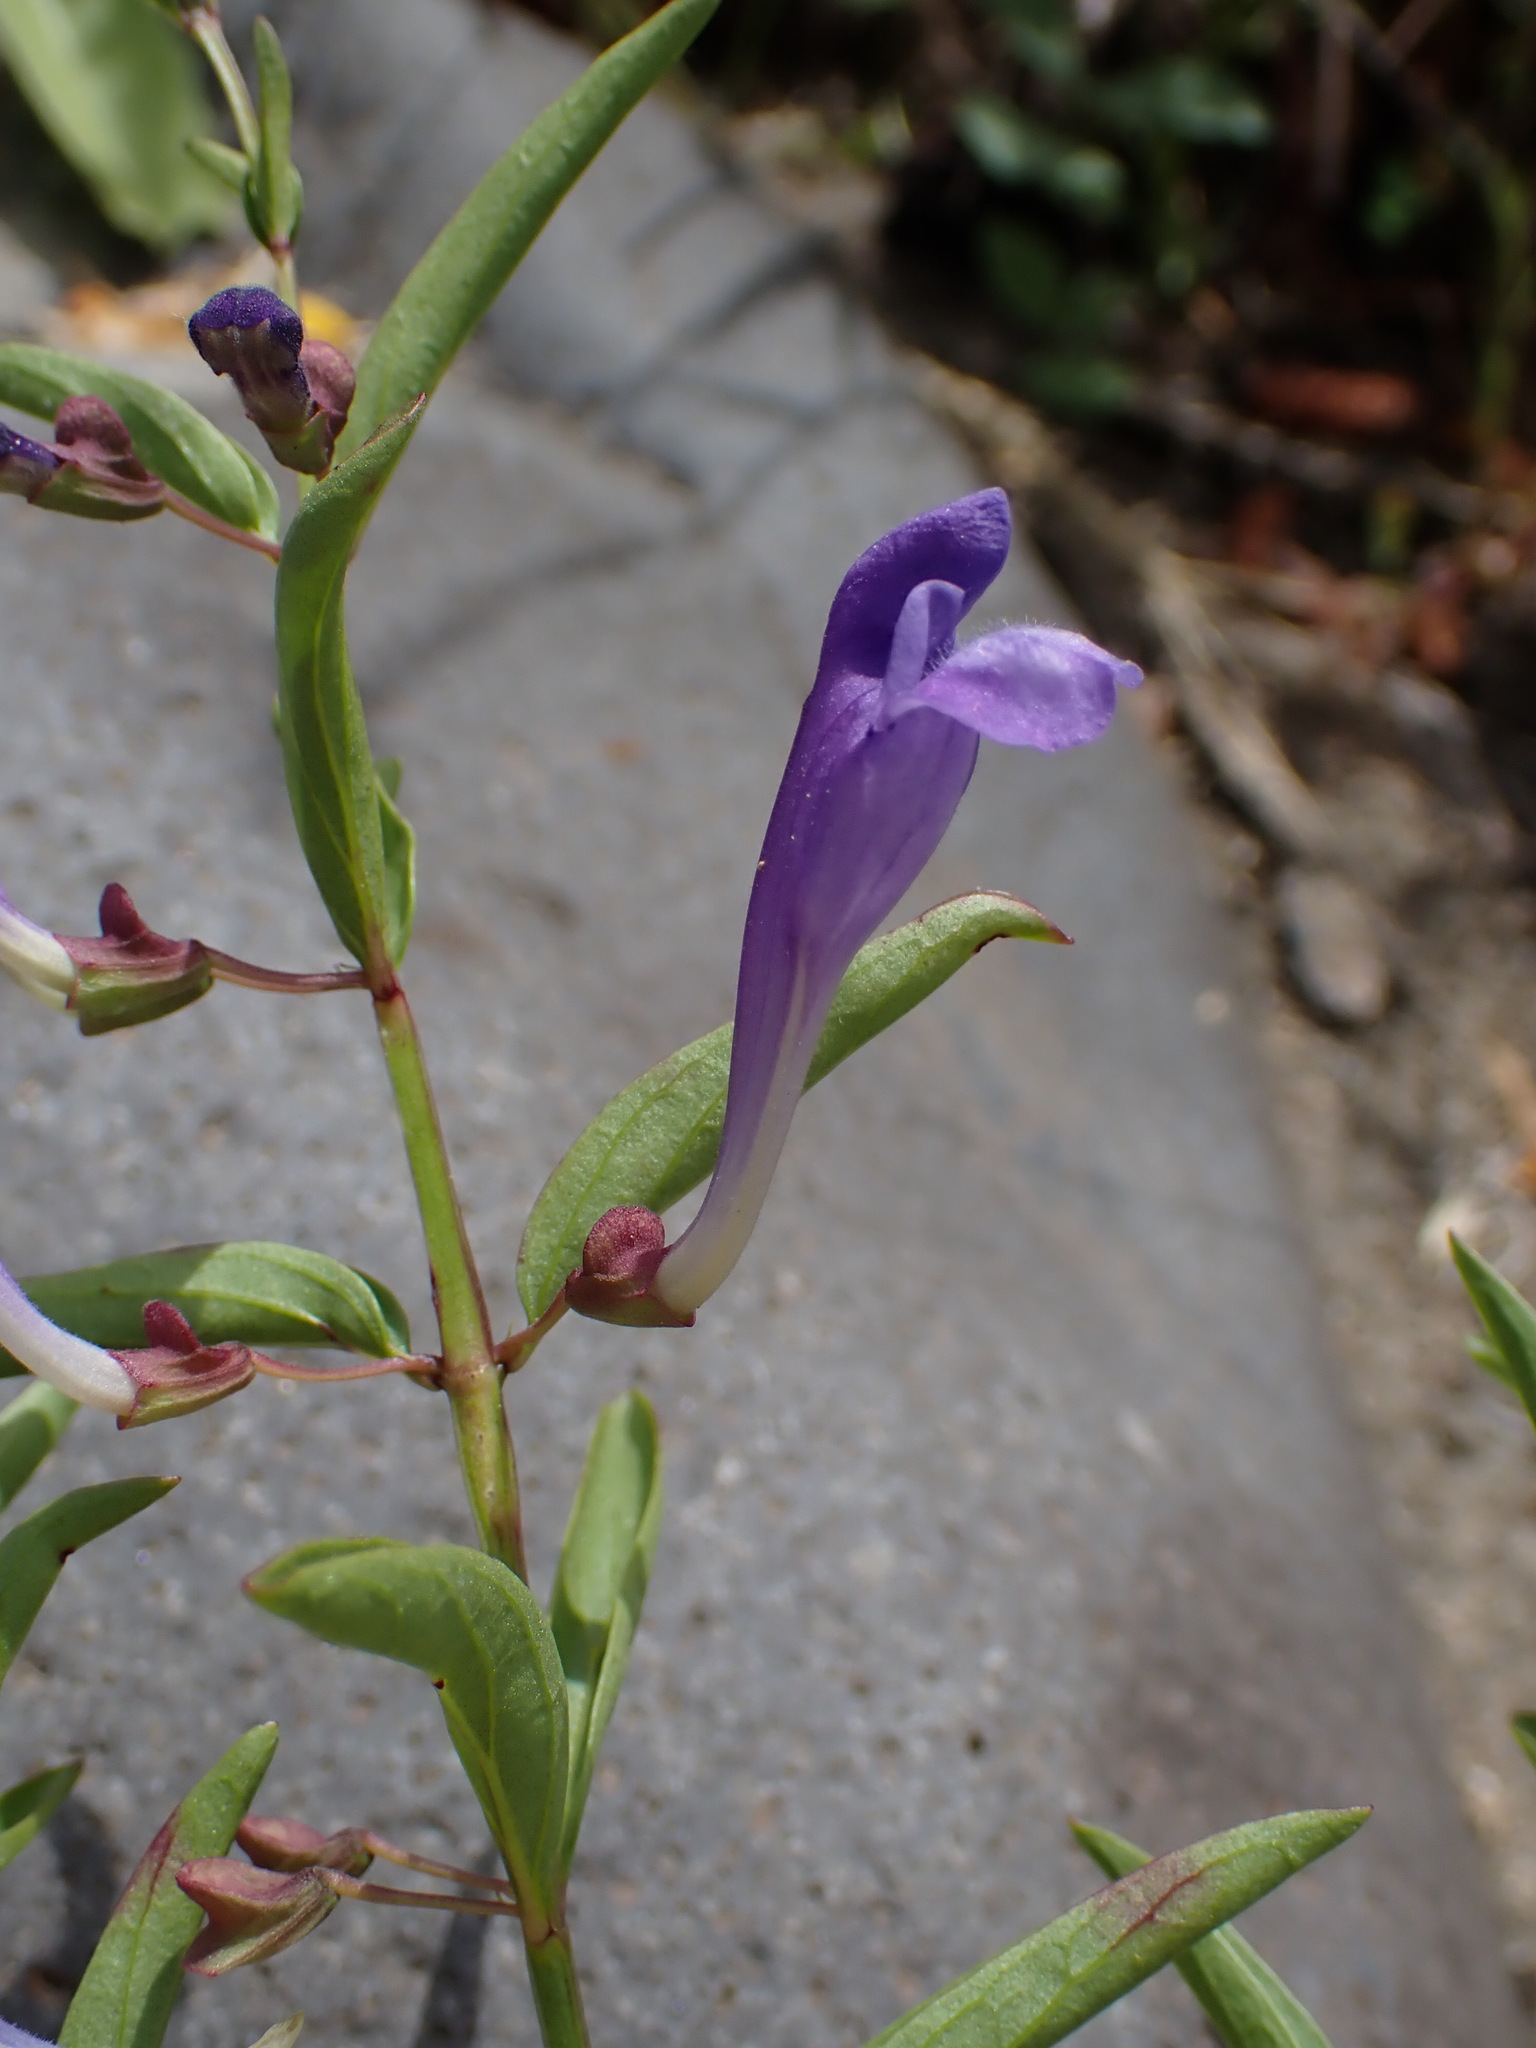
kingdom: Plantae
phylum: Tracheophyta
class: Magnoliopsida
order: Lamiales
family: Lamiaceae
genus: Scutellaria
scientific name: Scutellaria siphocampyloides
